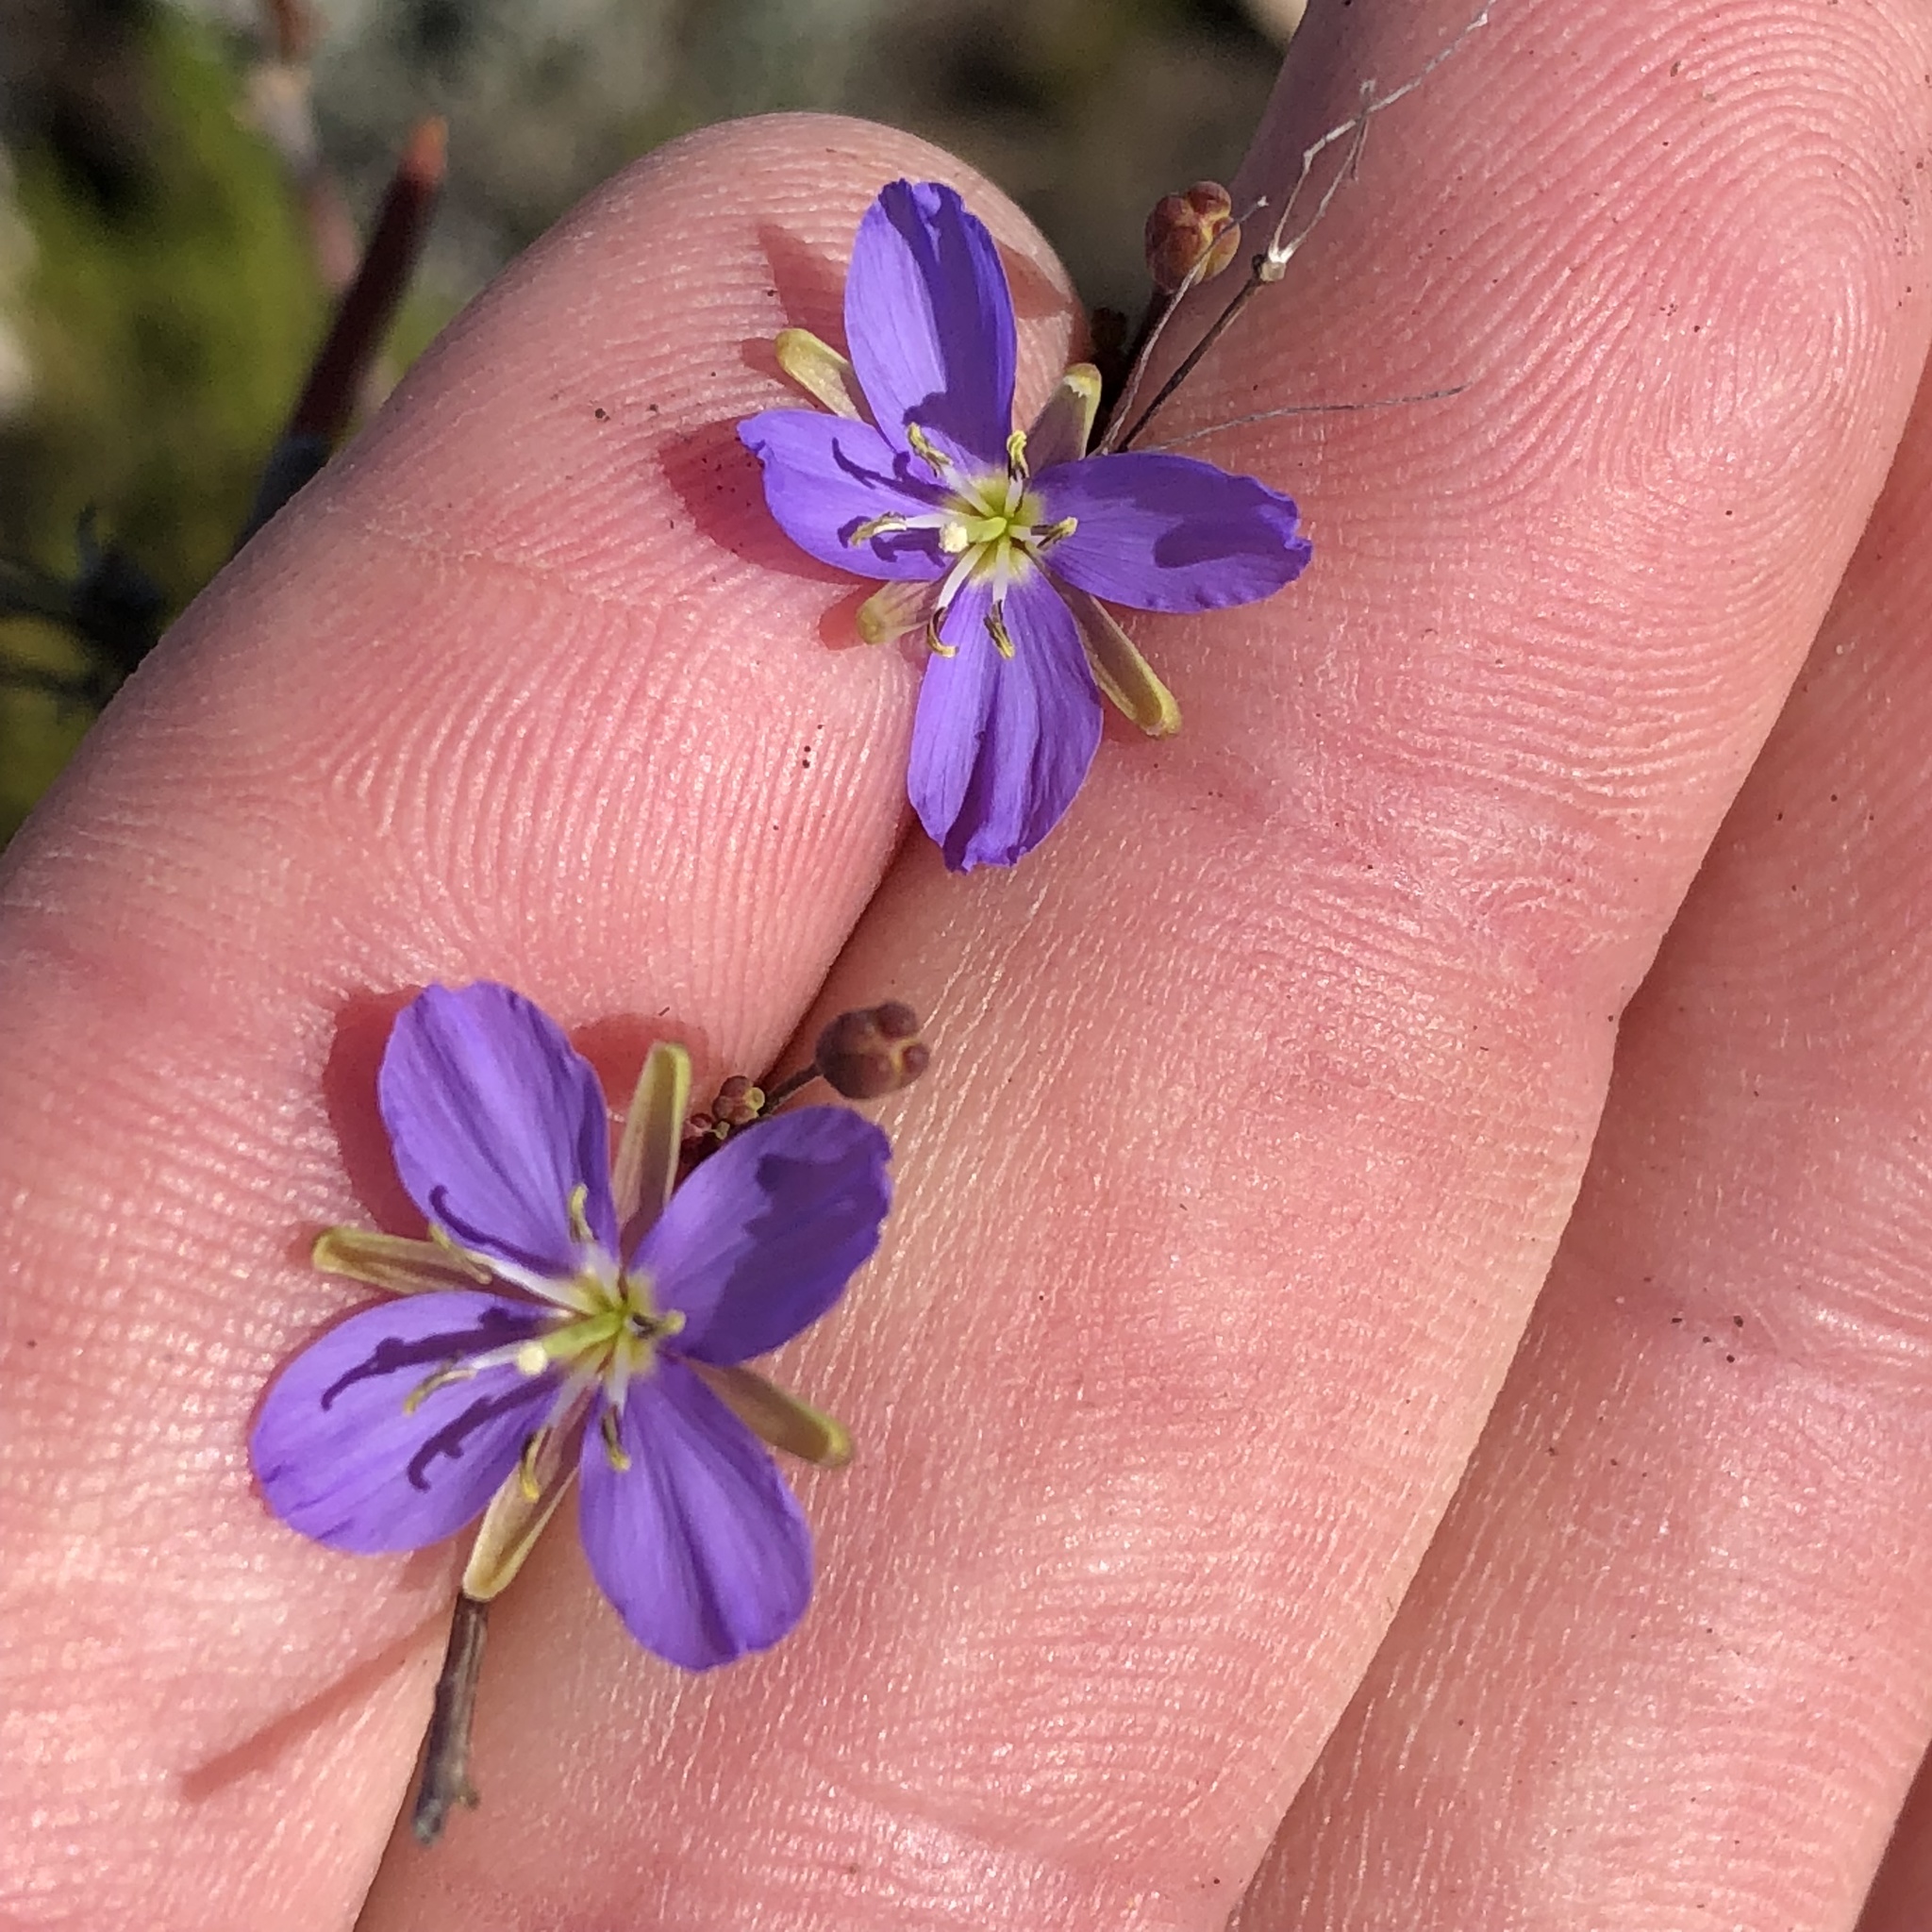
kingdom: Plantae
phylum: Tracheophyta
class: Magnoliopsida
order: Brassicales
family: Brassicaceae
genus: Heliophila
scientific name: Heliophila linearis
